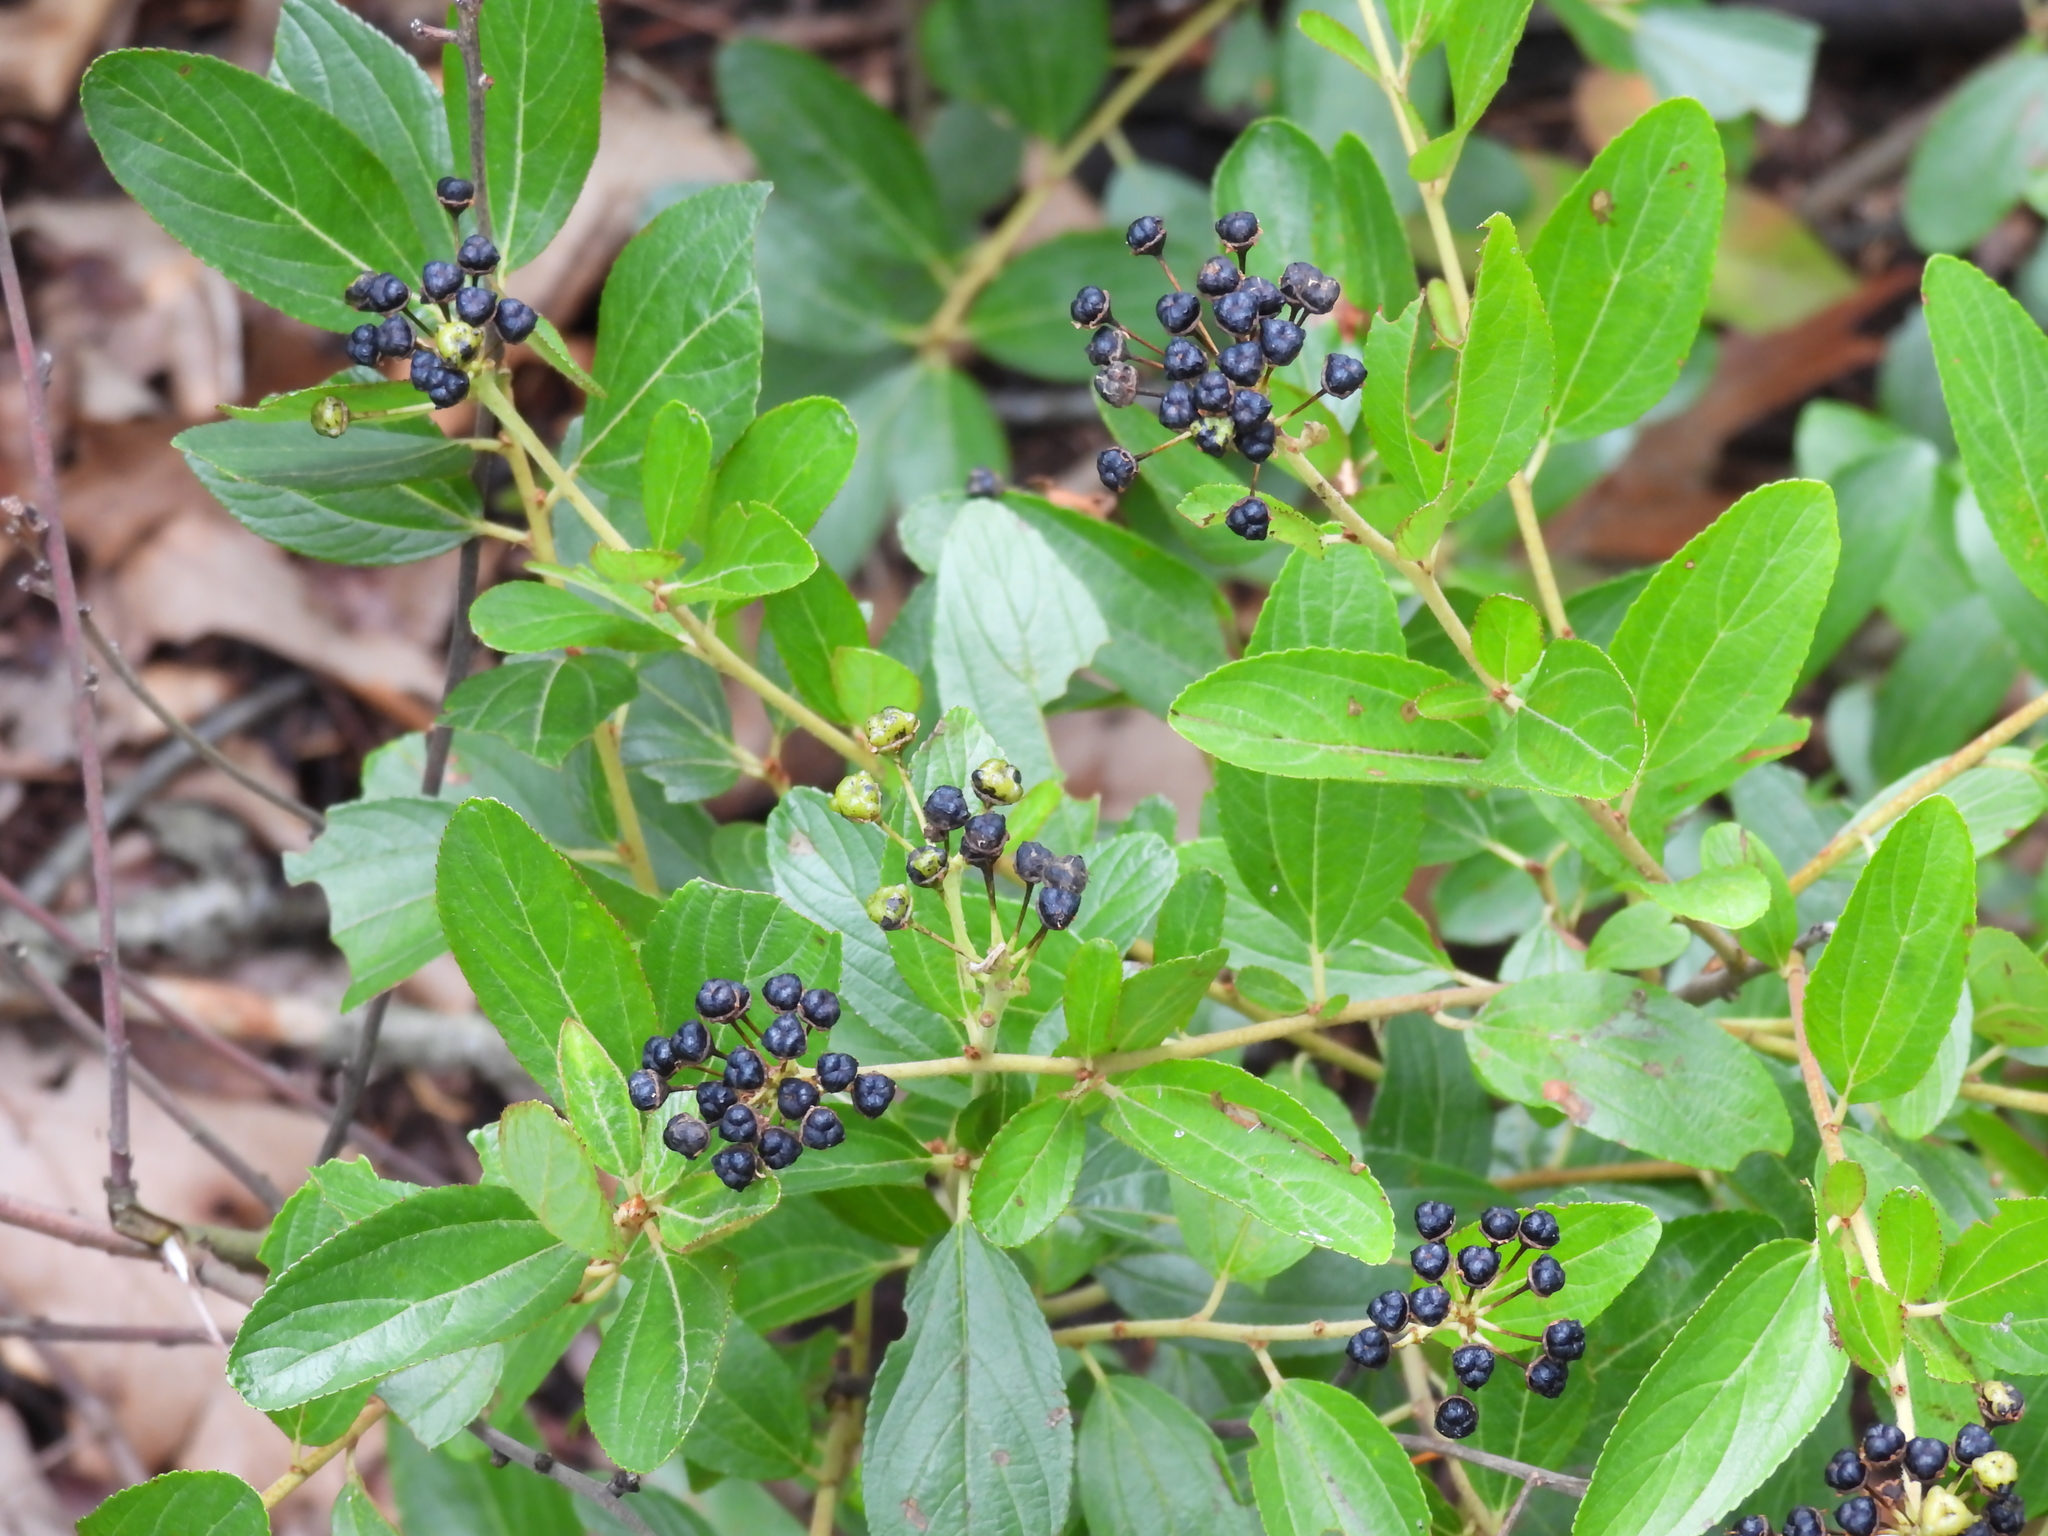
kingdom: Plantae
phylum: Tracheophyta
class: Magnoliopsida
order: Rosales
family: Rhamnaceae
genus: Ceanothus
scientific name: Ceanothus herbaceus
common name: Inland ceanothus
